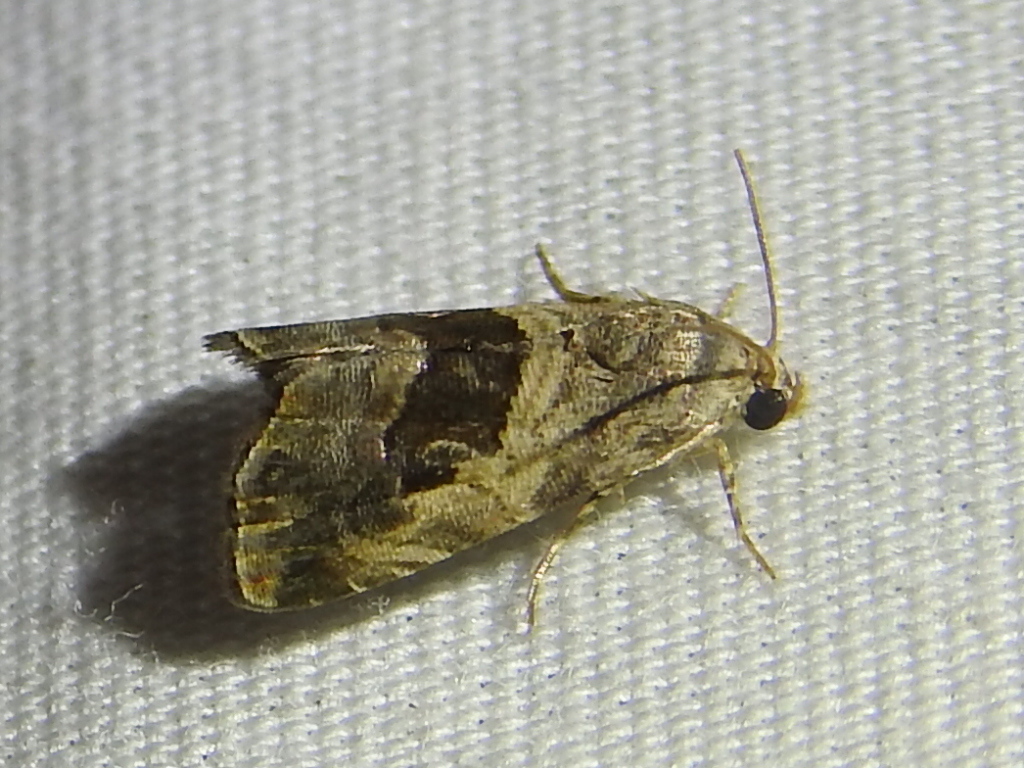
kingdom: Animalia
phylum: Arthropoda
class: Insecta
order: Lepidoptera
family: Noctuidae
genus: Tripudia
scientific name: Tripudia quadrifera
